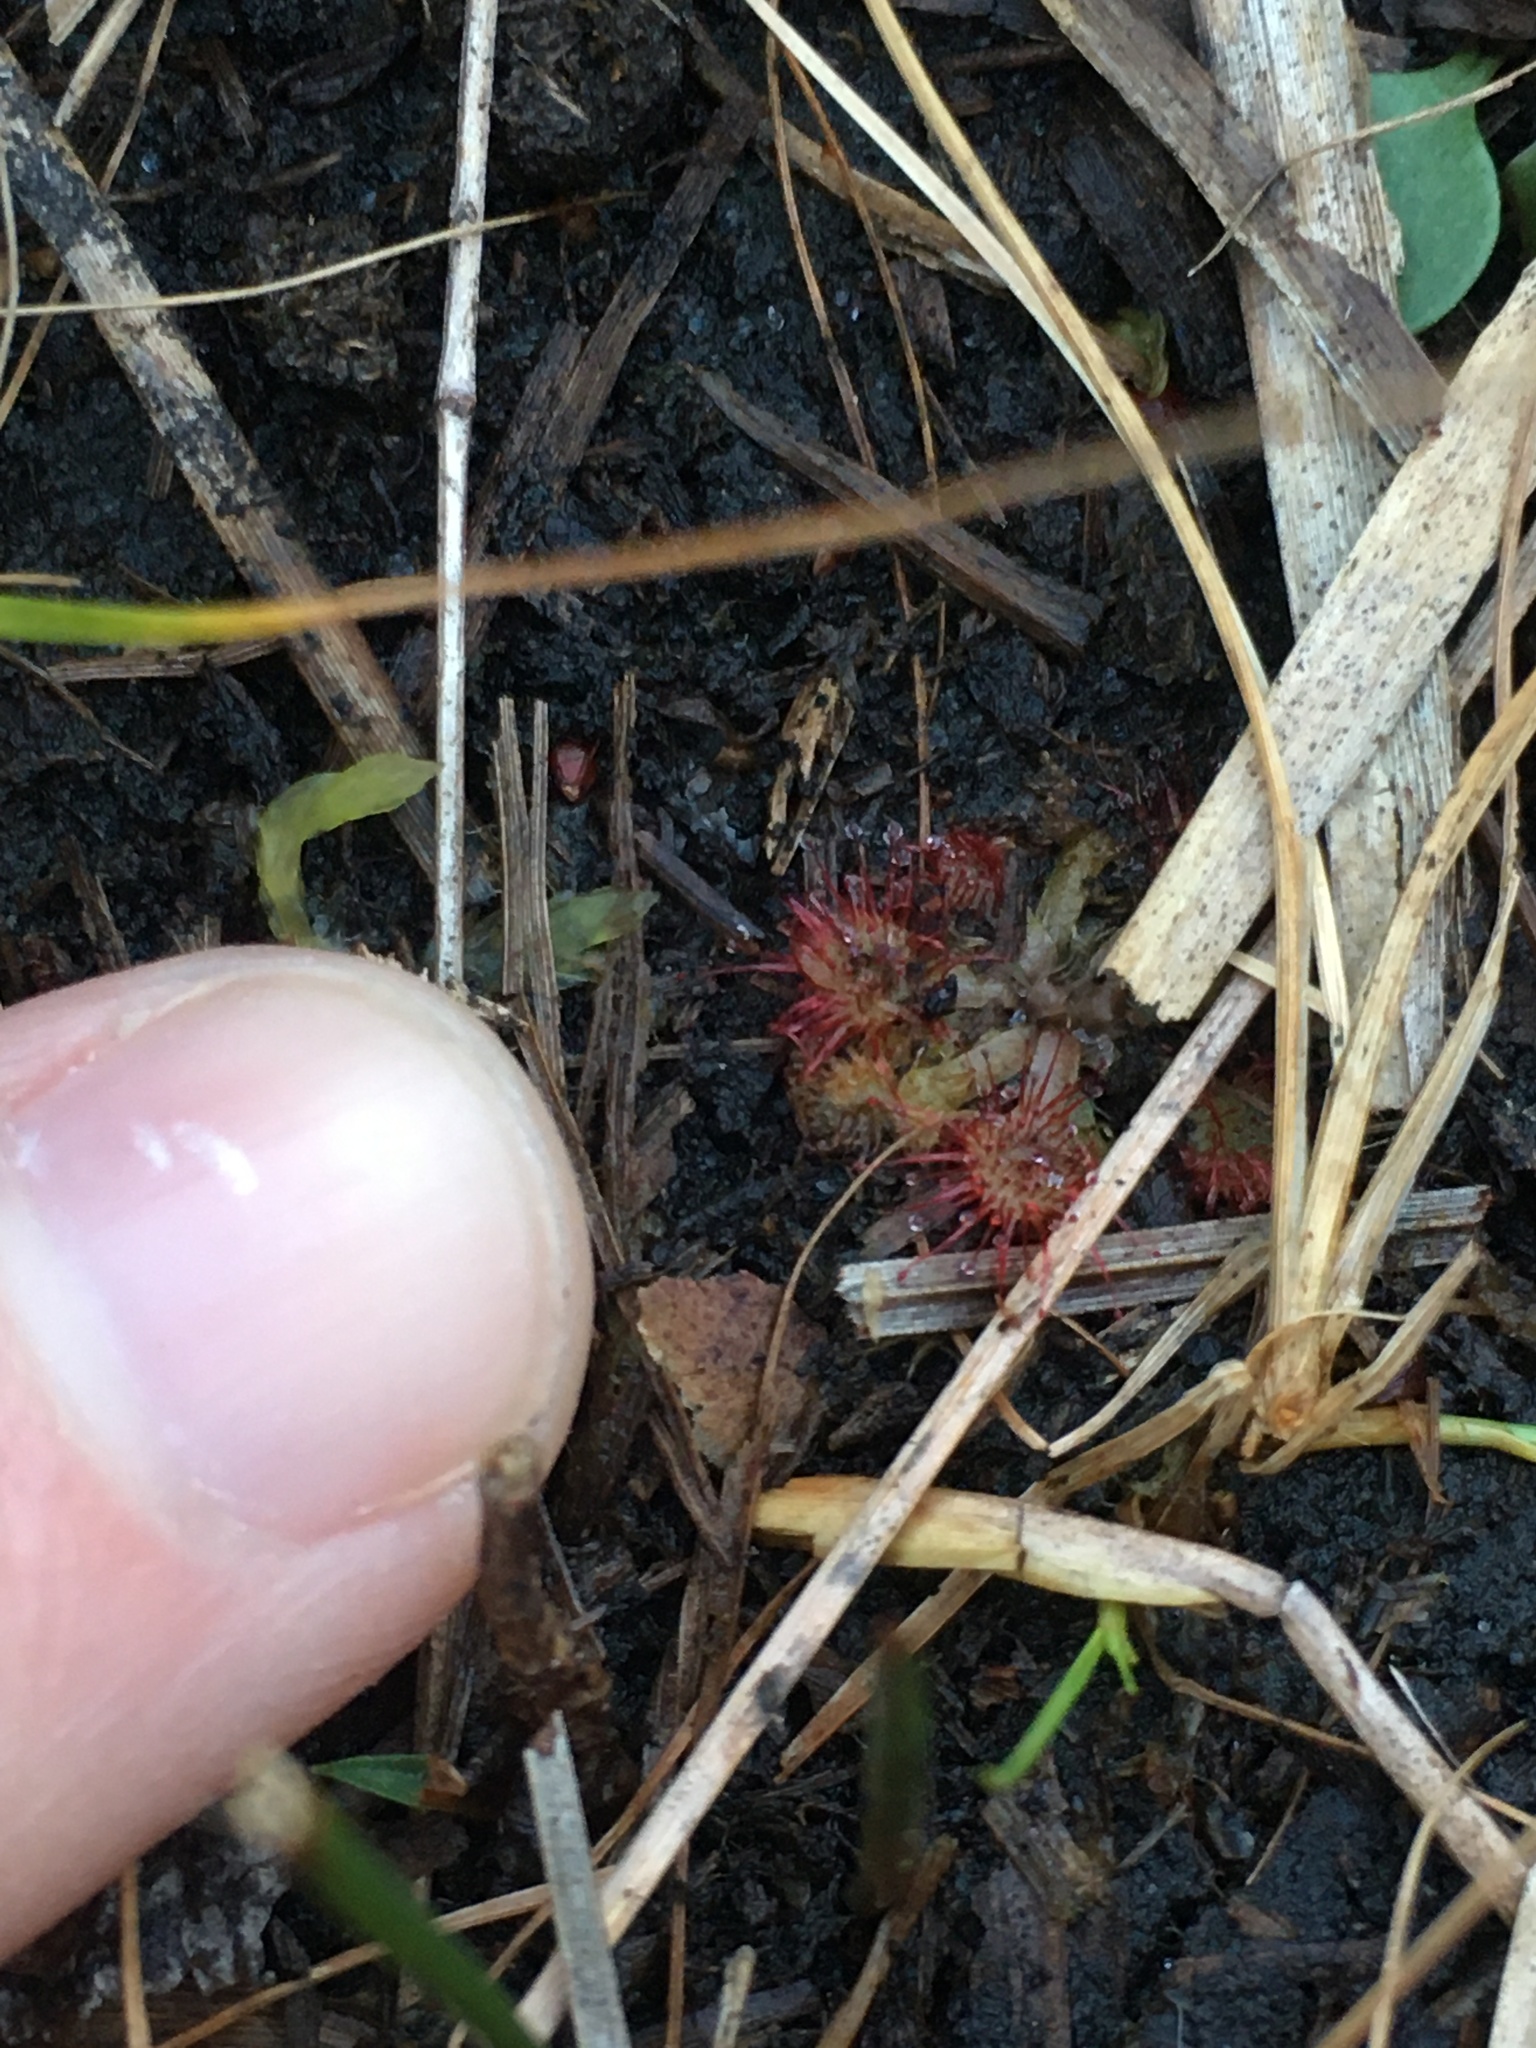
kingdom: Plantae
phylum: Tracheophyta
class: Magnoliopsida
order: Caryophyllales
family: Droseraceae
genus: Drosera
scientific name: Drosera capillaris
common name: Pink sundew
